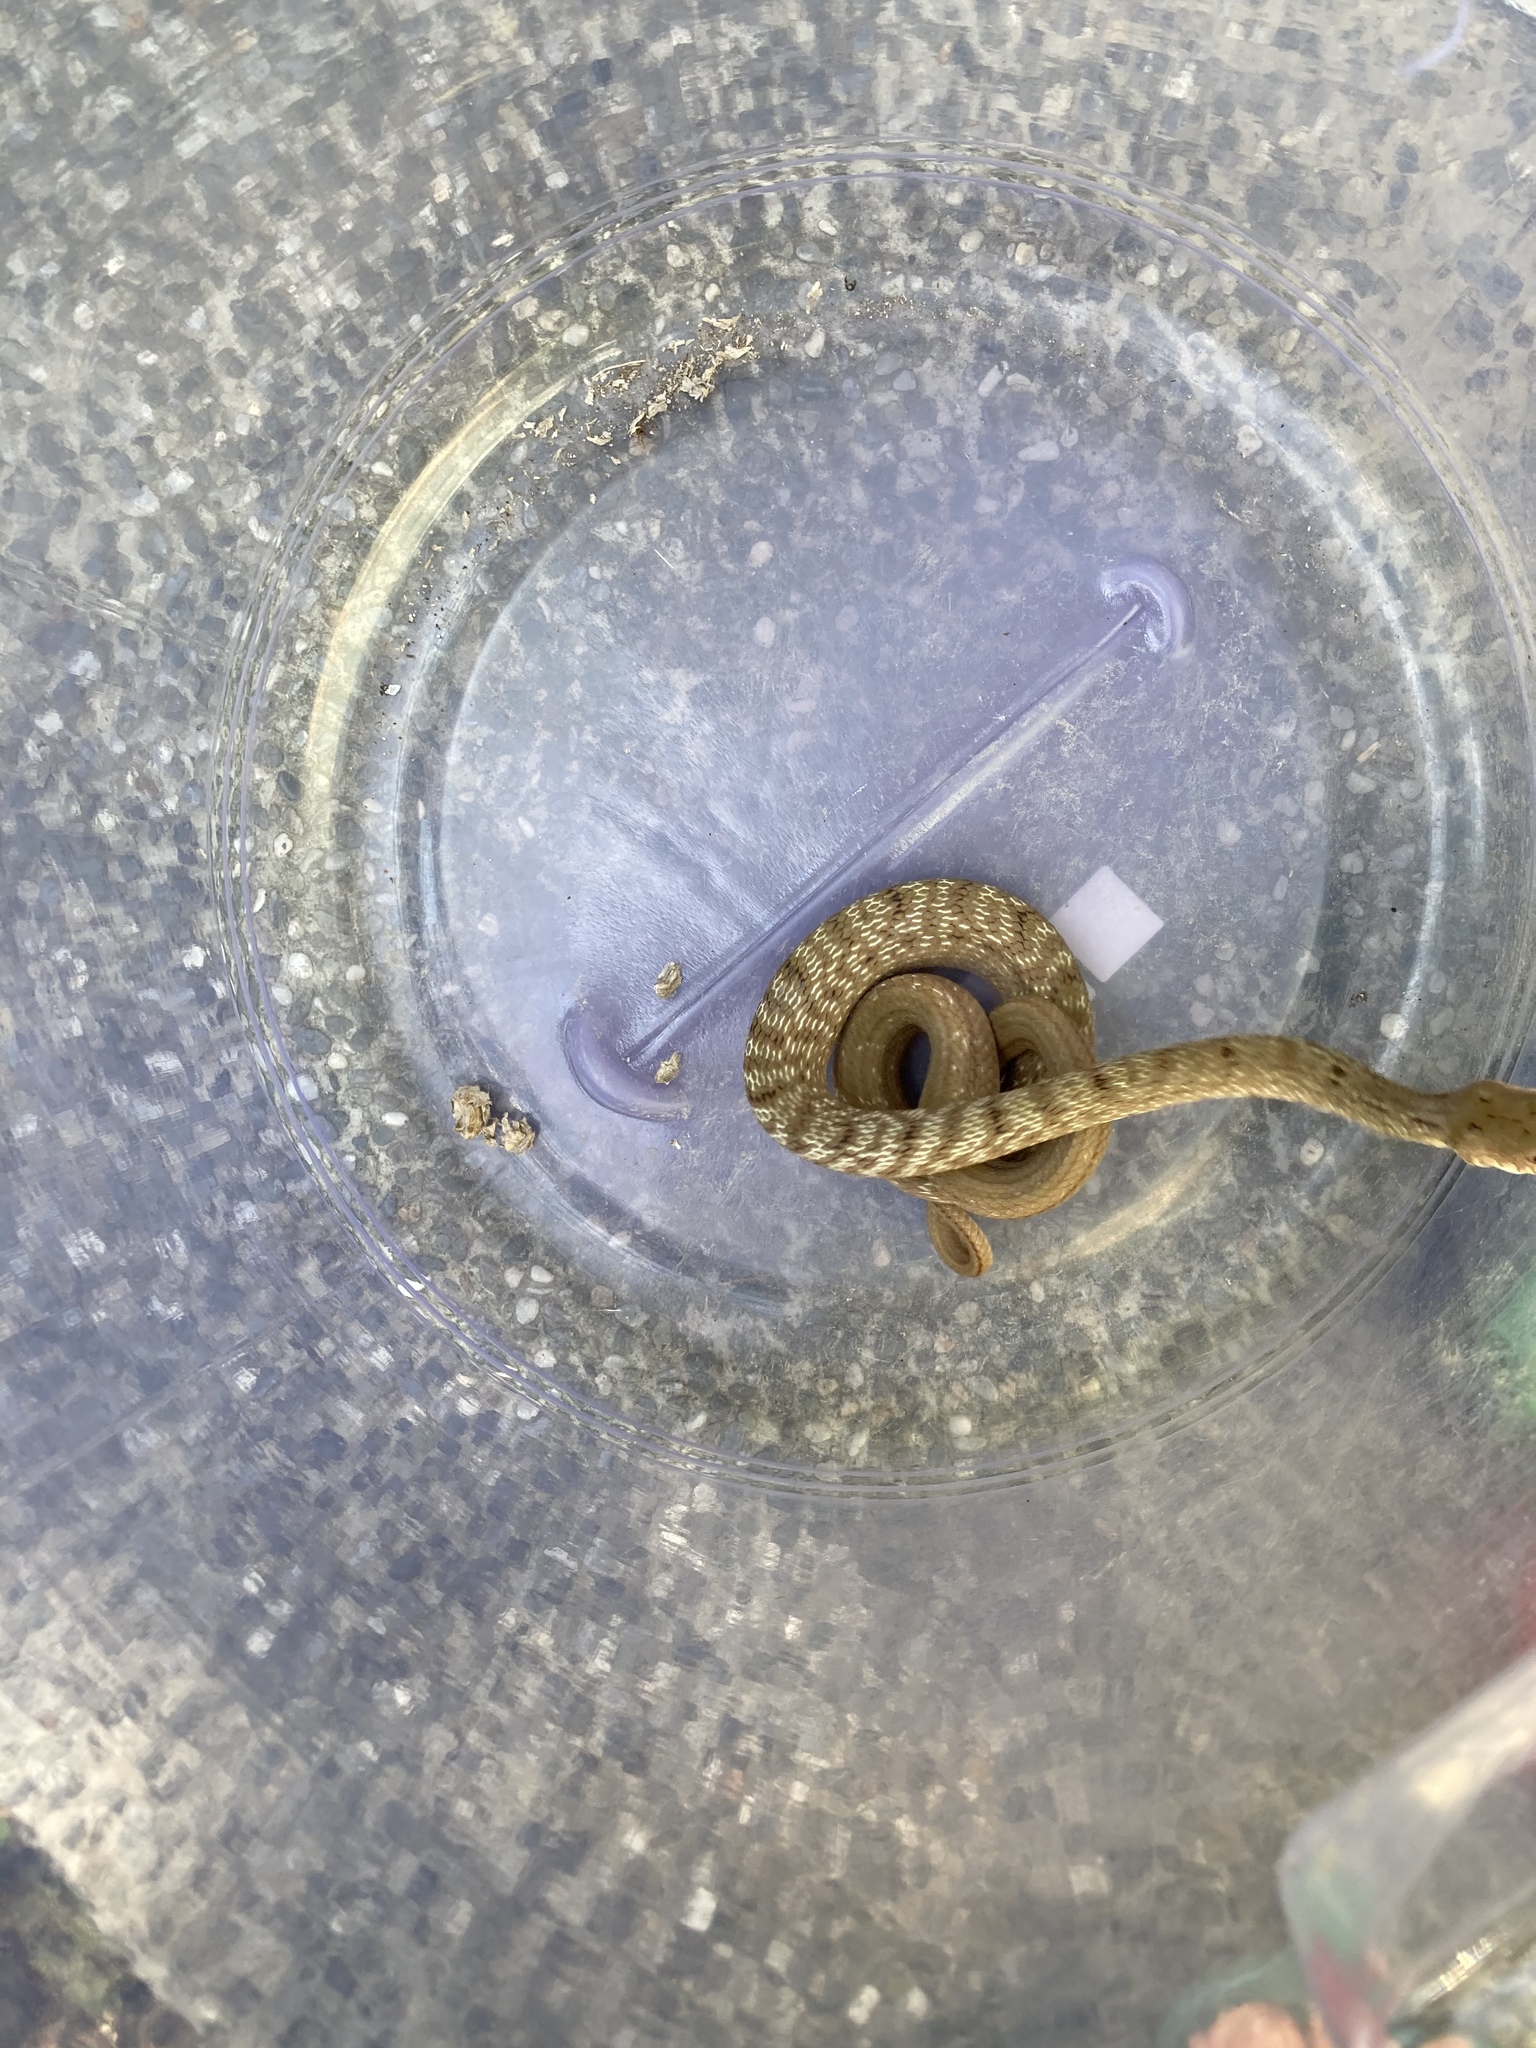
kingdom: Animalia
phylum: Chordata
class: Squamata
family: Colubridae
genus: Elaphe
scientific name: Elaphe carinata
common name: Taiwan stink snake
